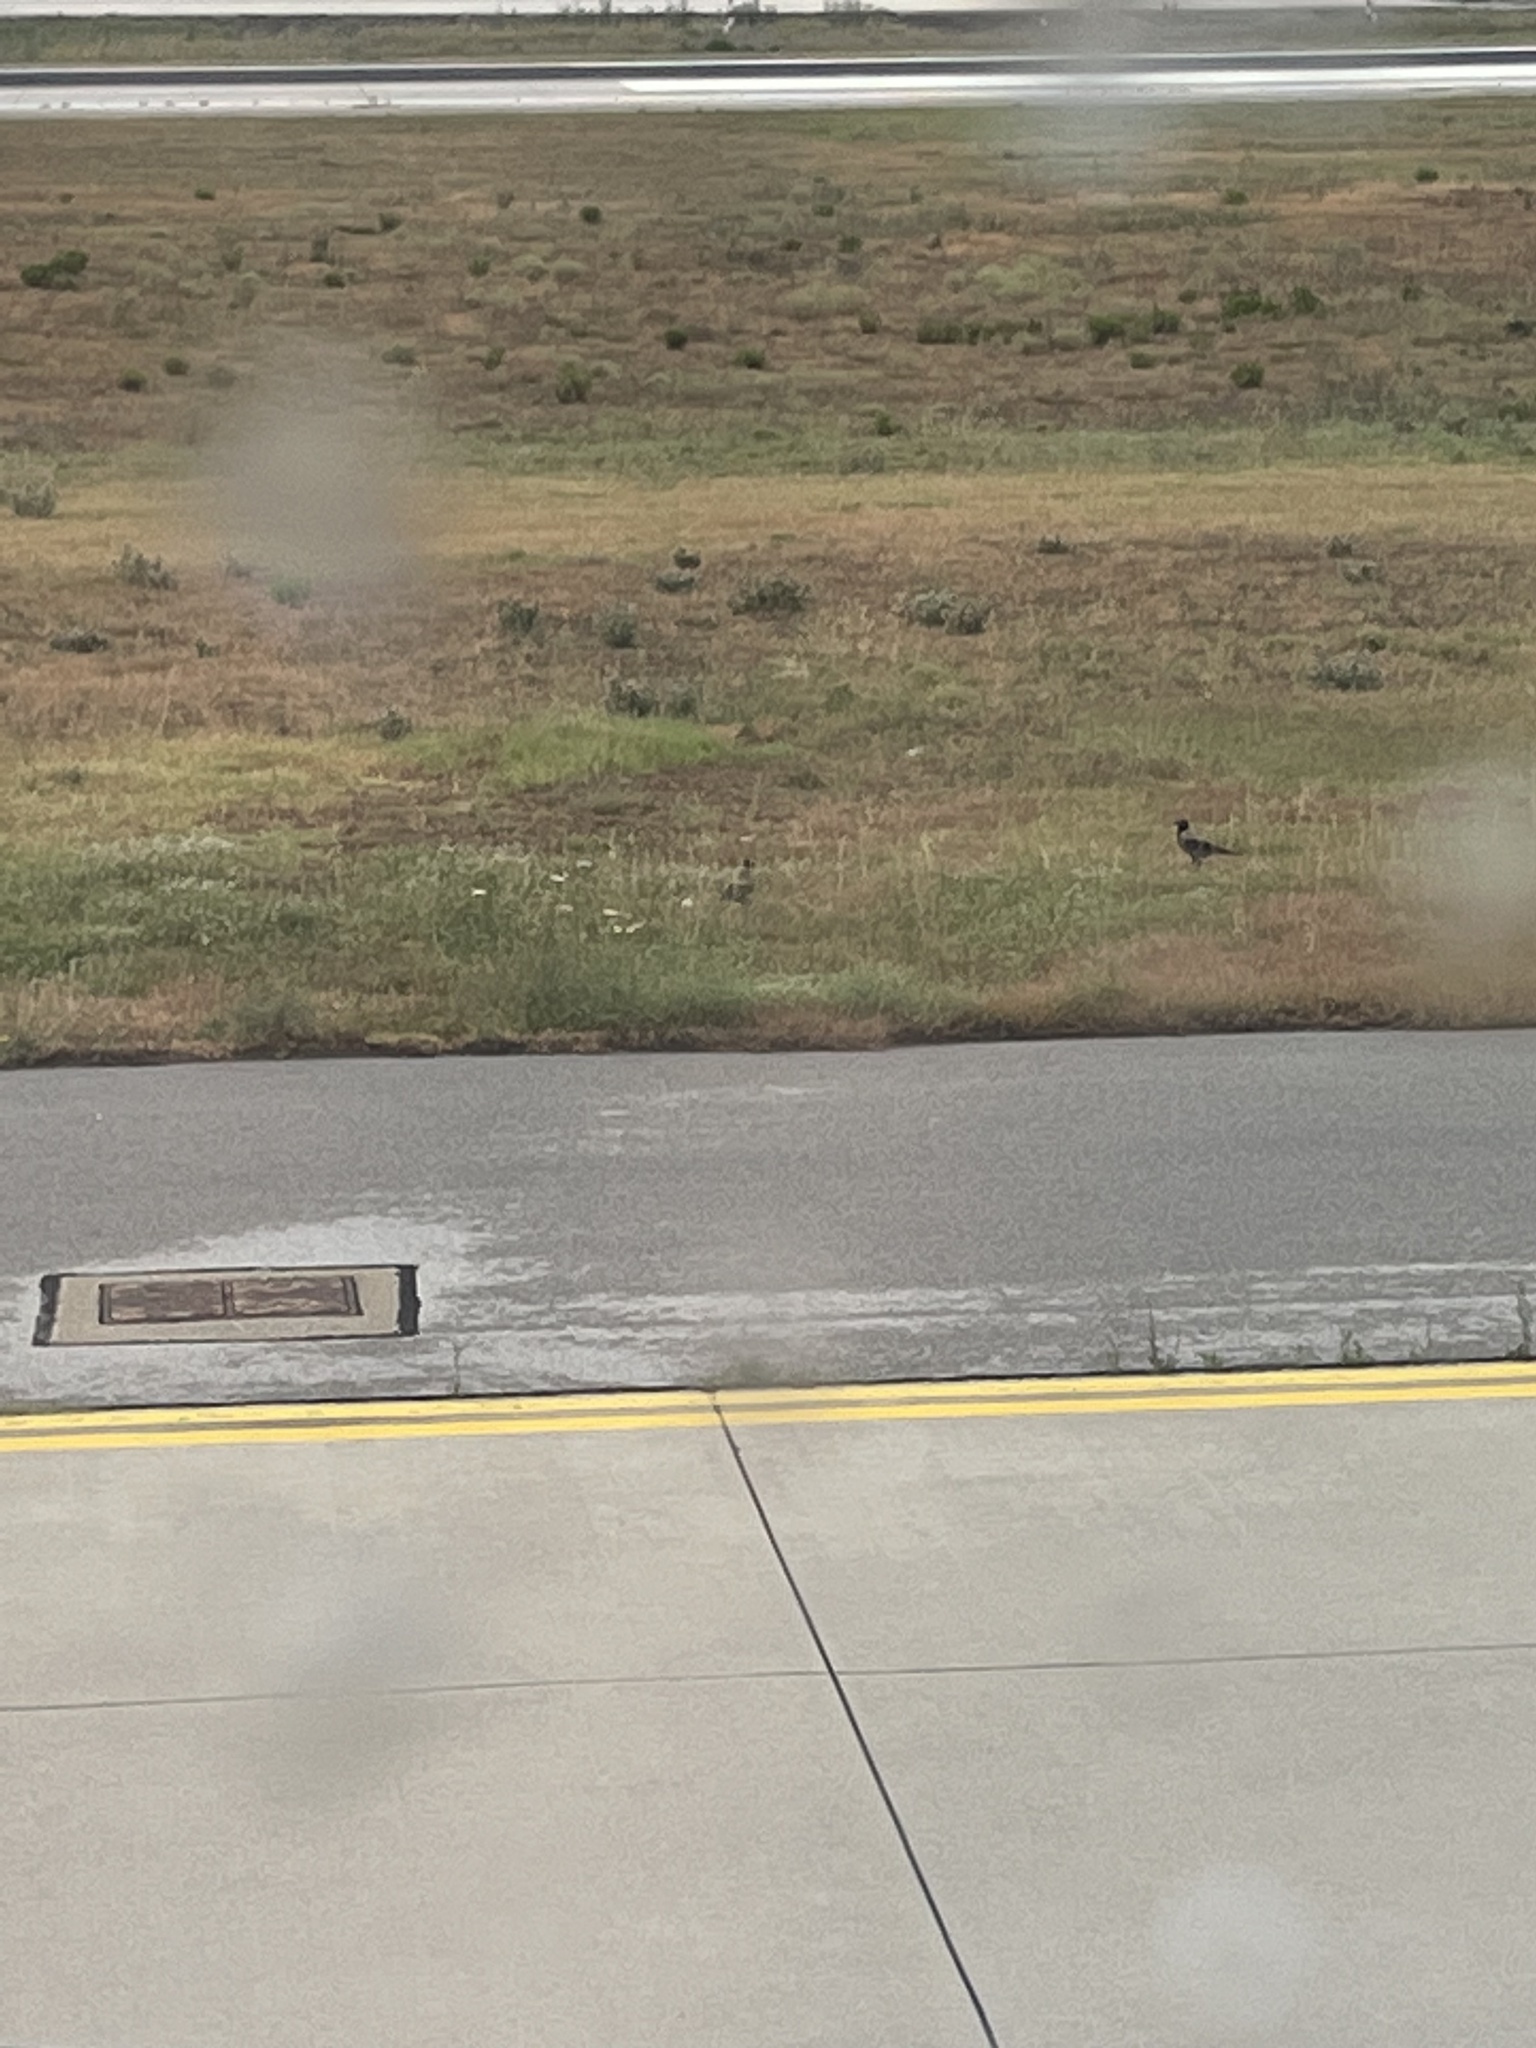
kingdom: Animalia
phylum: Chordata
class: Aves
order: Passeriformes
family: Corvidae
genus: Corvus
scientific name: Corvus cornix
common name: Hooded crow
